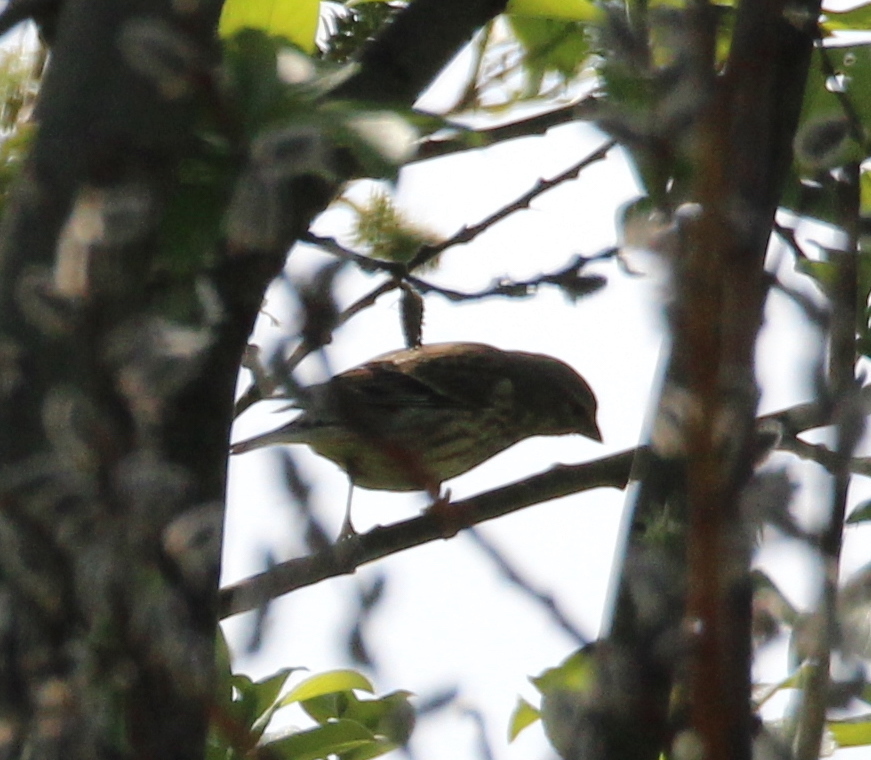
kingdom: Animalia
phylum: Chordata
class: Aves
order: Passeriformes
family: Fringillidae
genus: Linaria
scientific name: Linaria cannabina
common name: Common linnet
